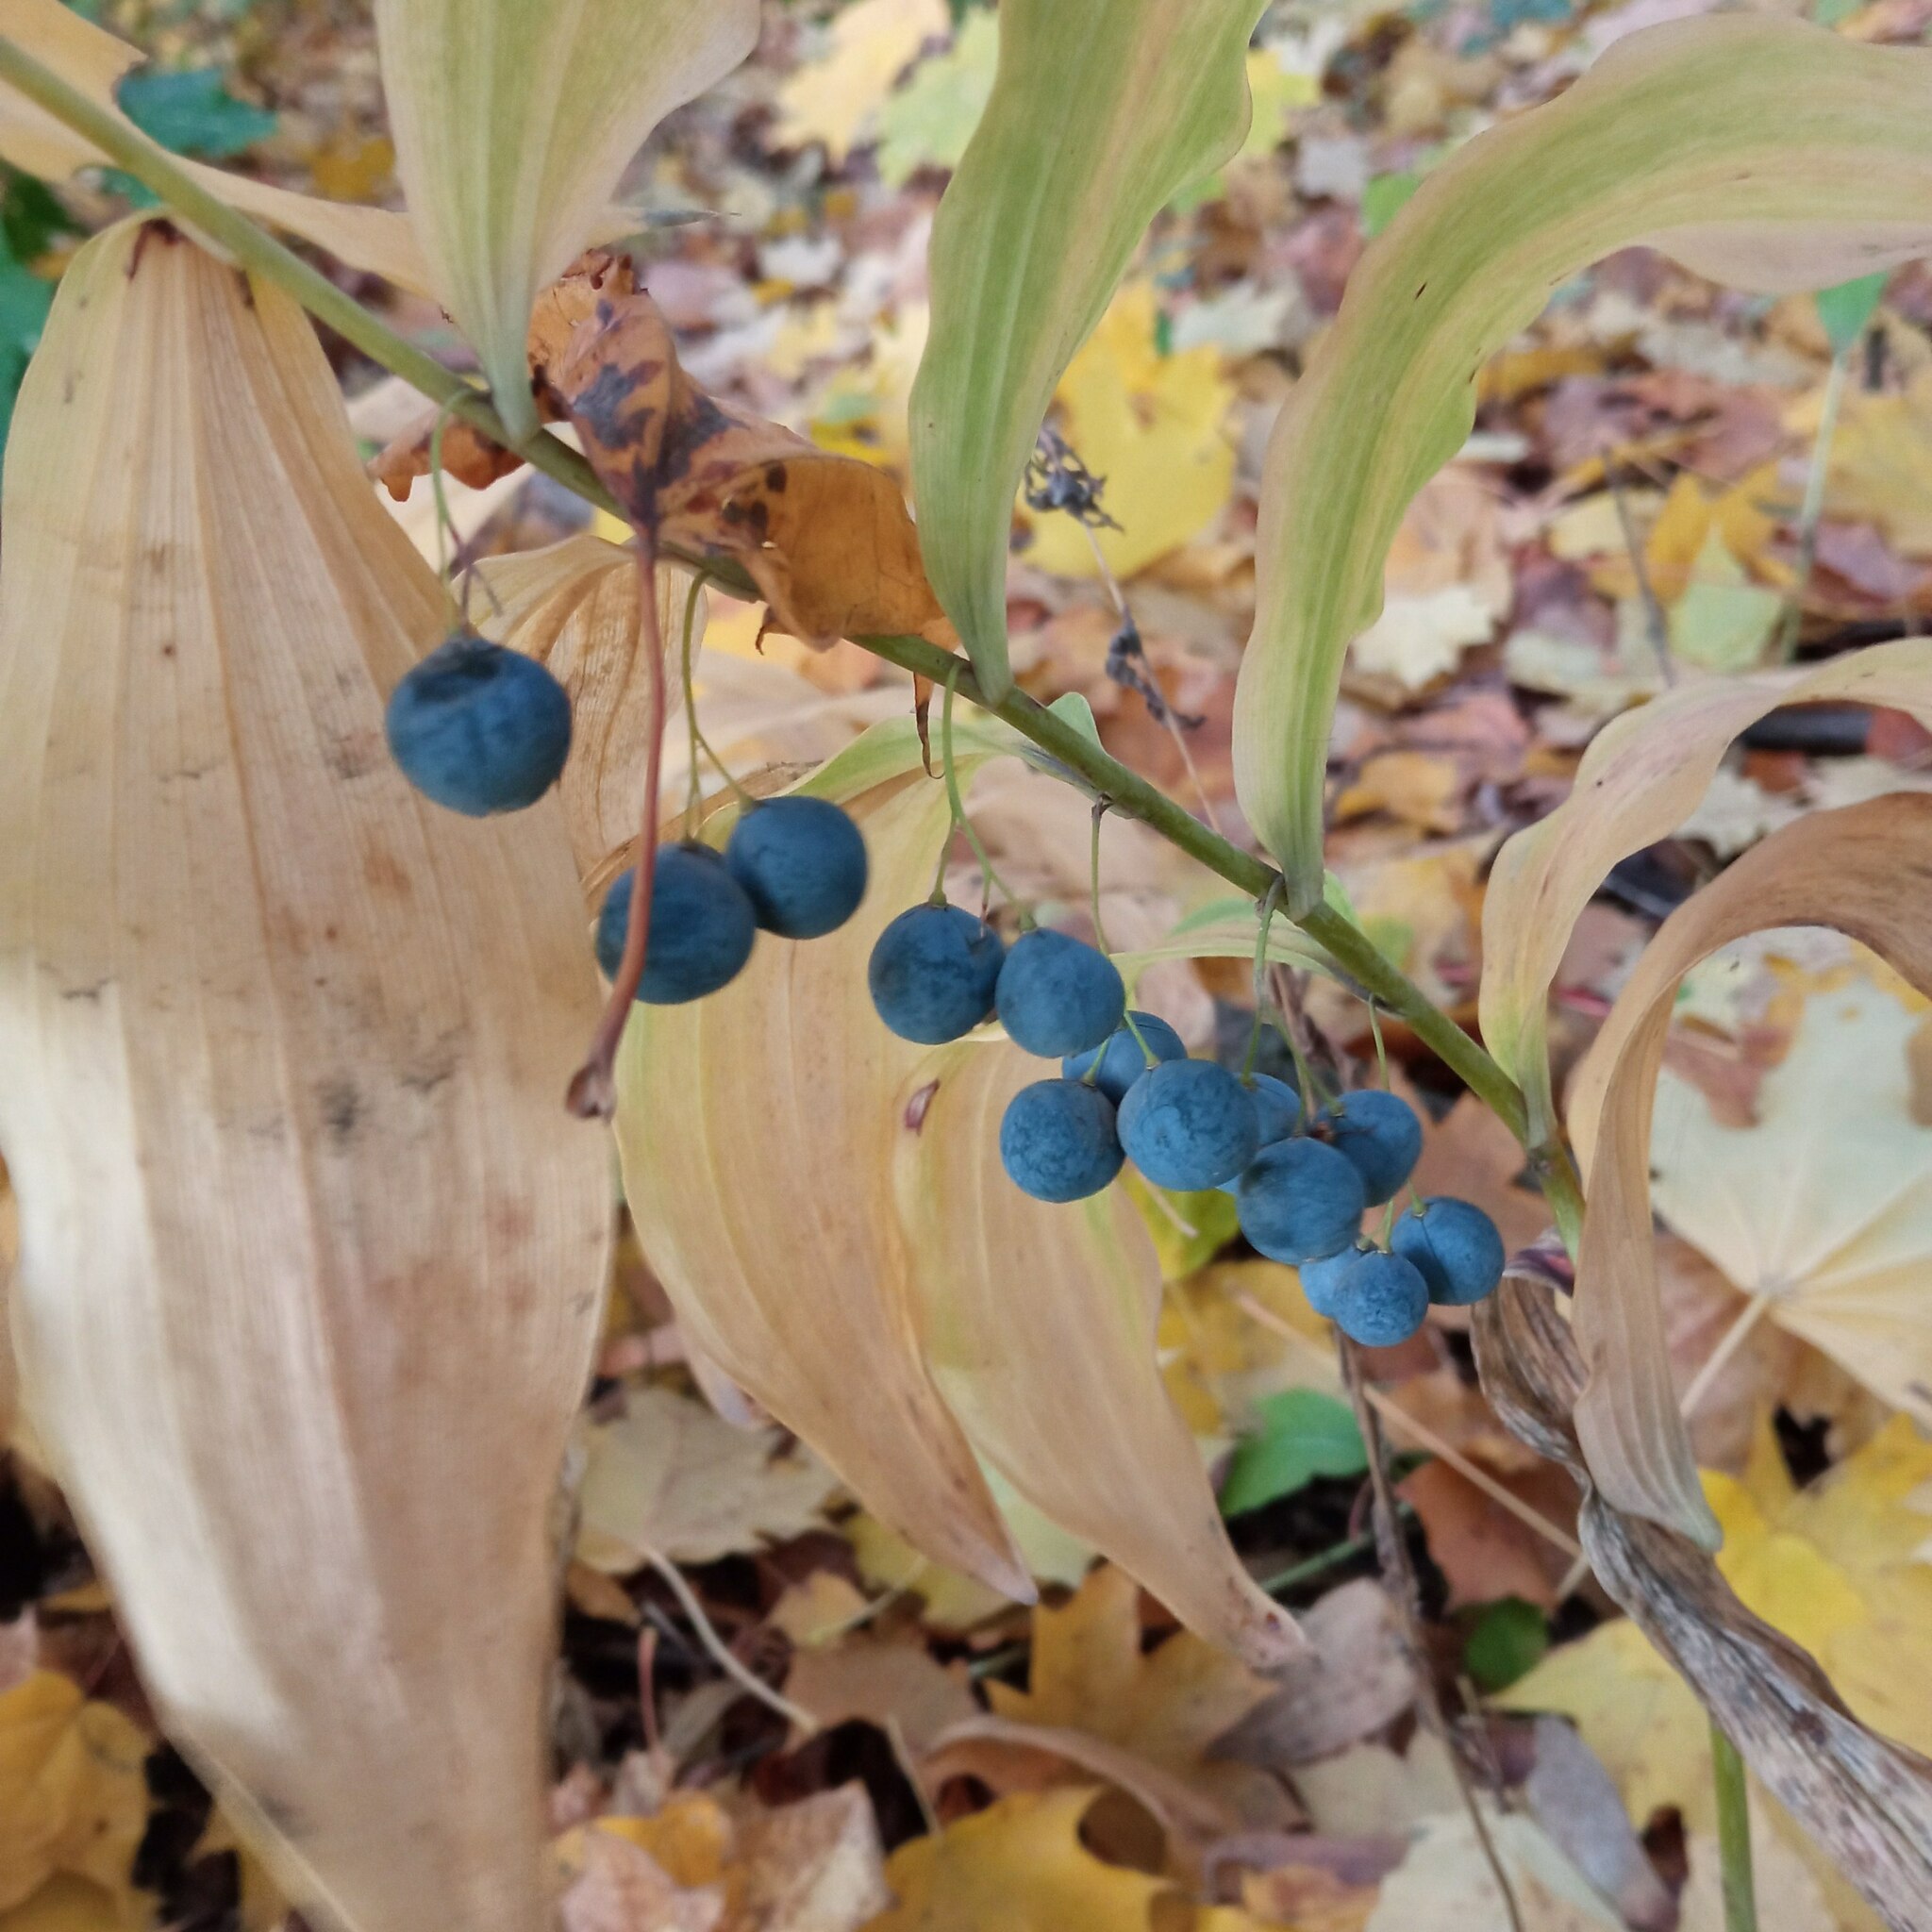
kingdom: Plantae
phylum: Tracheophyta
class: Liliopsida
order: Asparagales
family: Asparagaceae
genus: Polygonatum
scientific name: Polygonatum multiflorum
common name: Solomon's-seal
